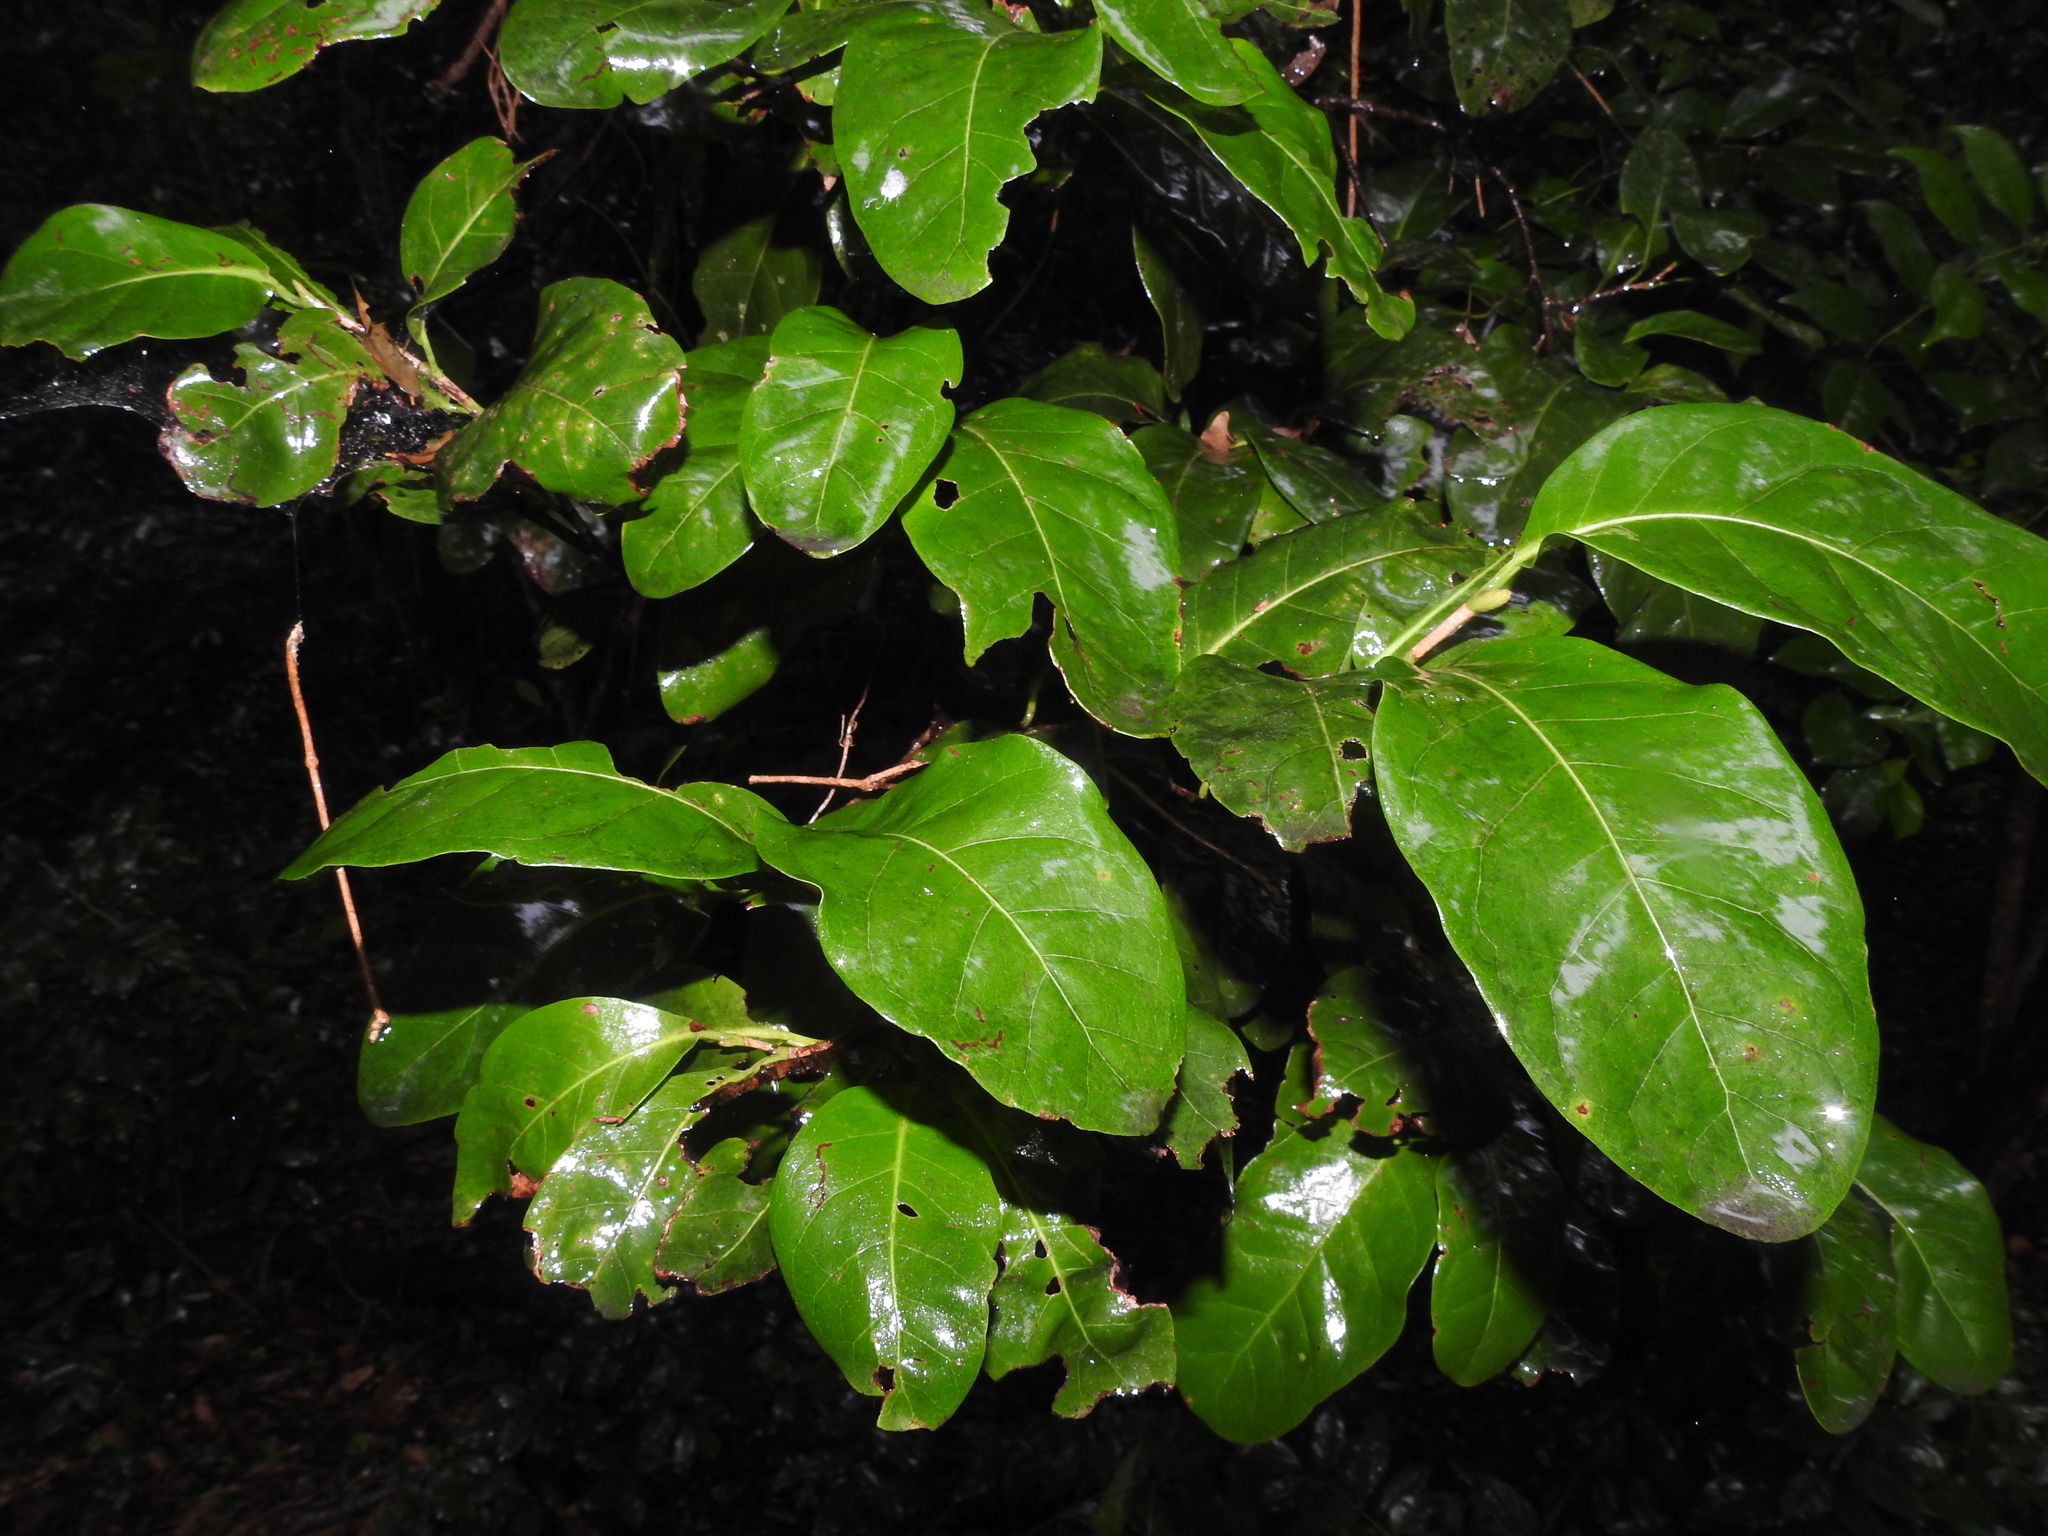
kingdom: Plantae
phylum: Tracheophyta
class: Magnoliopsida
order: Caryophyllales
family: Polygonaceae
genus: Coccoloba
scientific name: Coccoloba diversifolia
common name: Pigeon-plum
